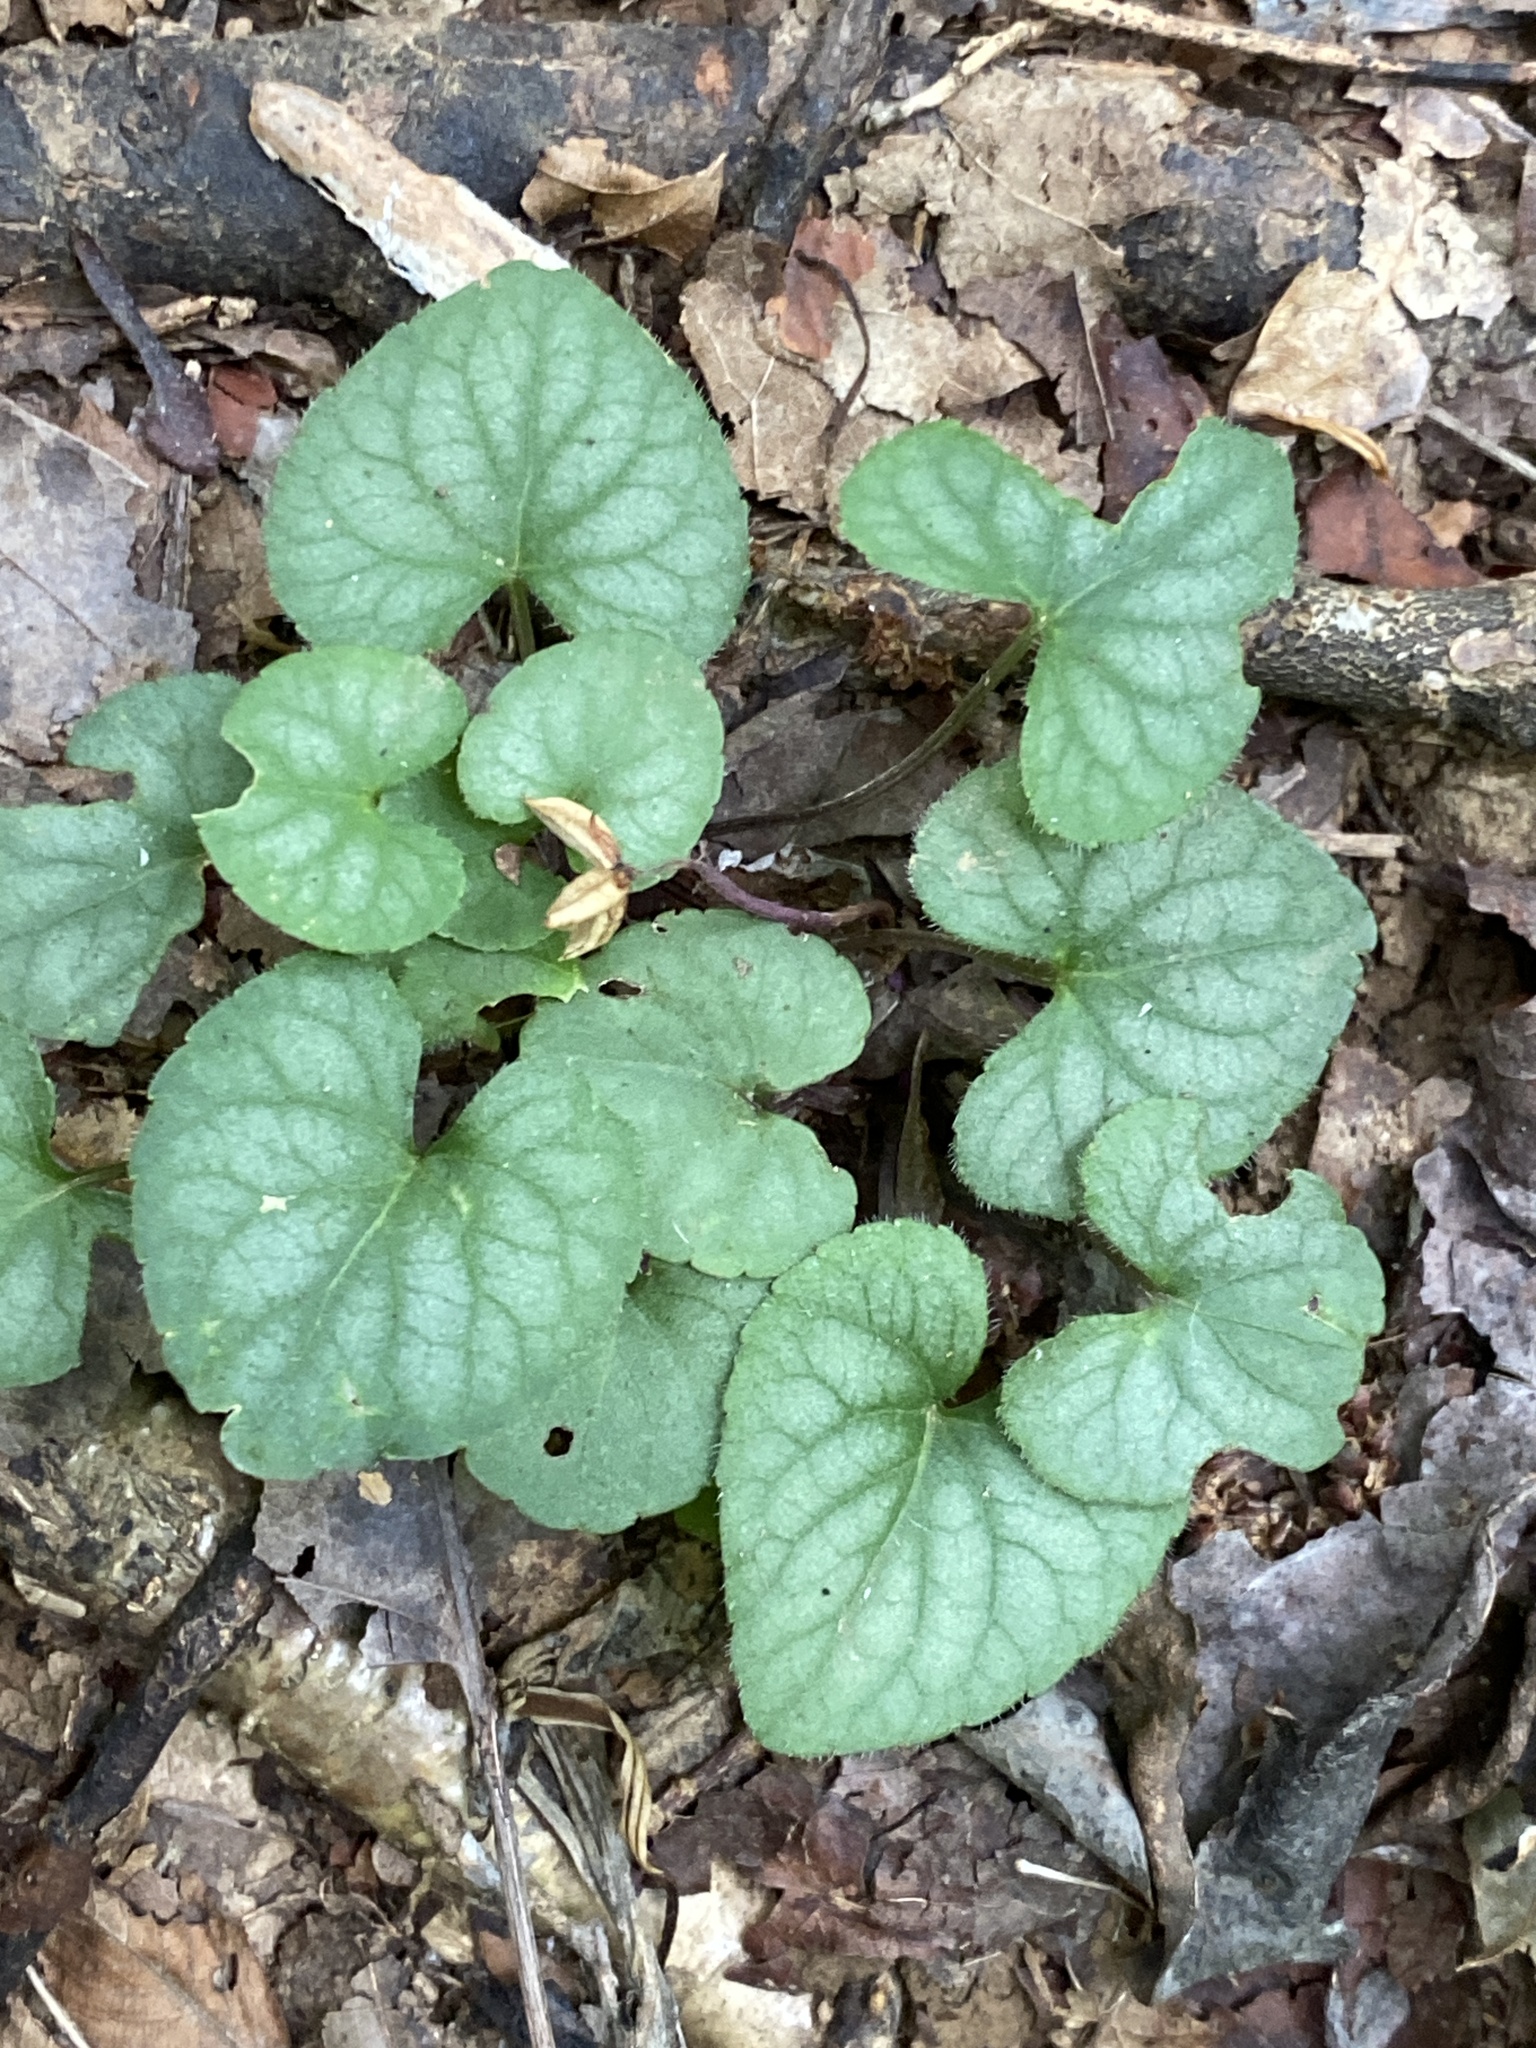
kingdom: Plantae
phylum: Tracheophyta
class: Magnoliopsida
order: Malpighiales
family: Violaceae
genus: Viola
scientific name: Viola hirsutula
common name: Southern wood violet
